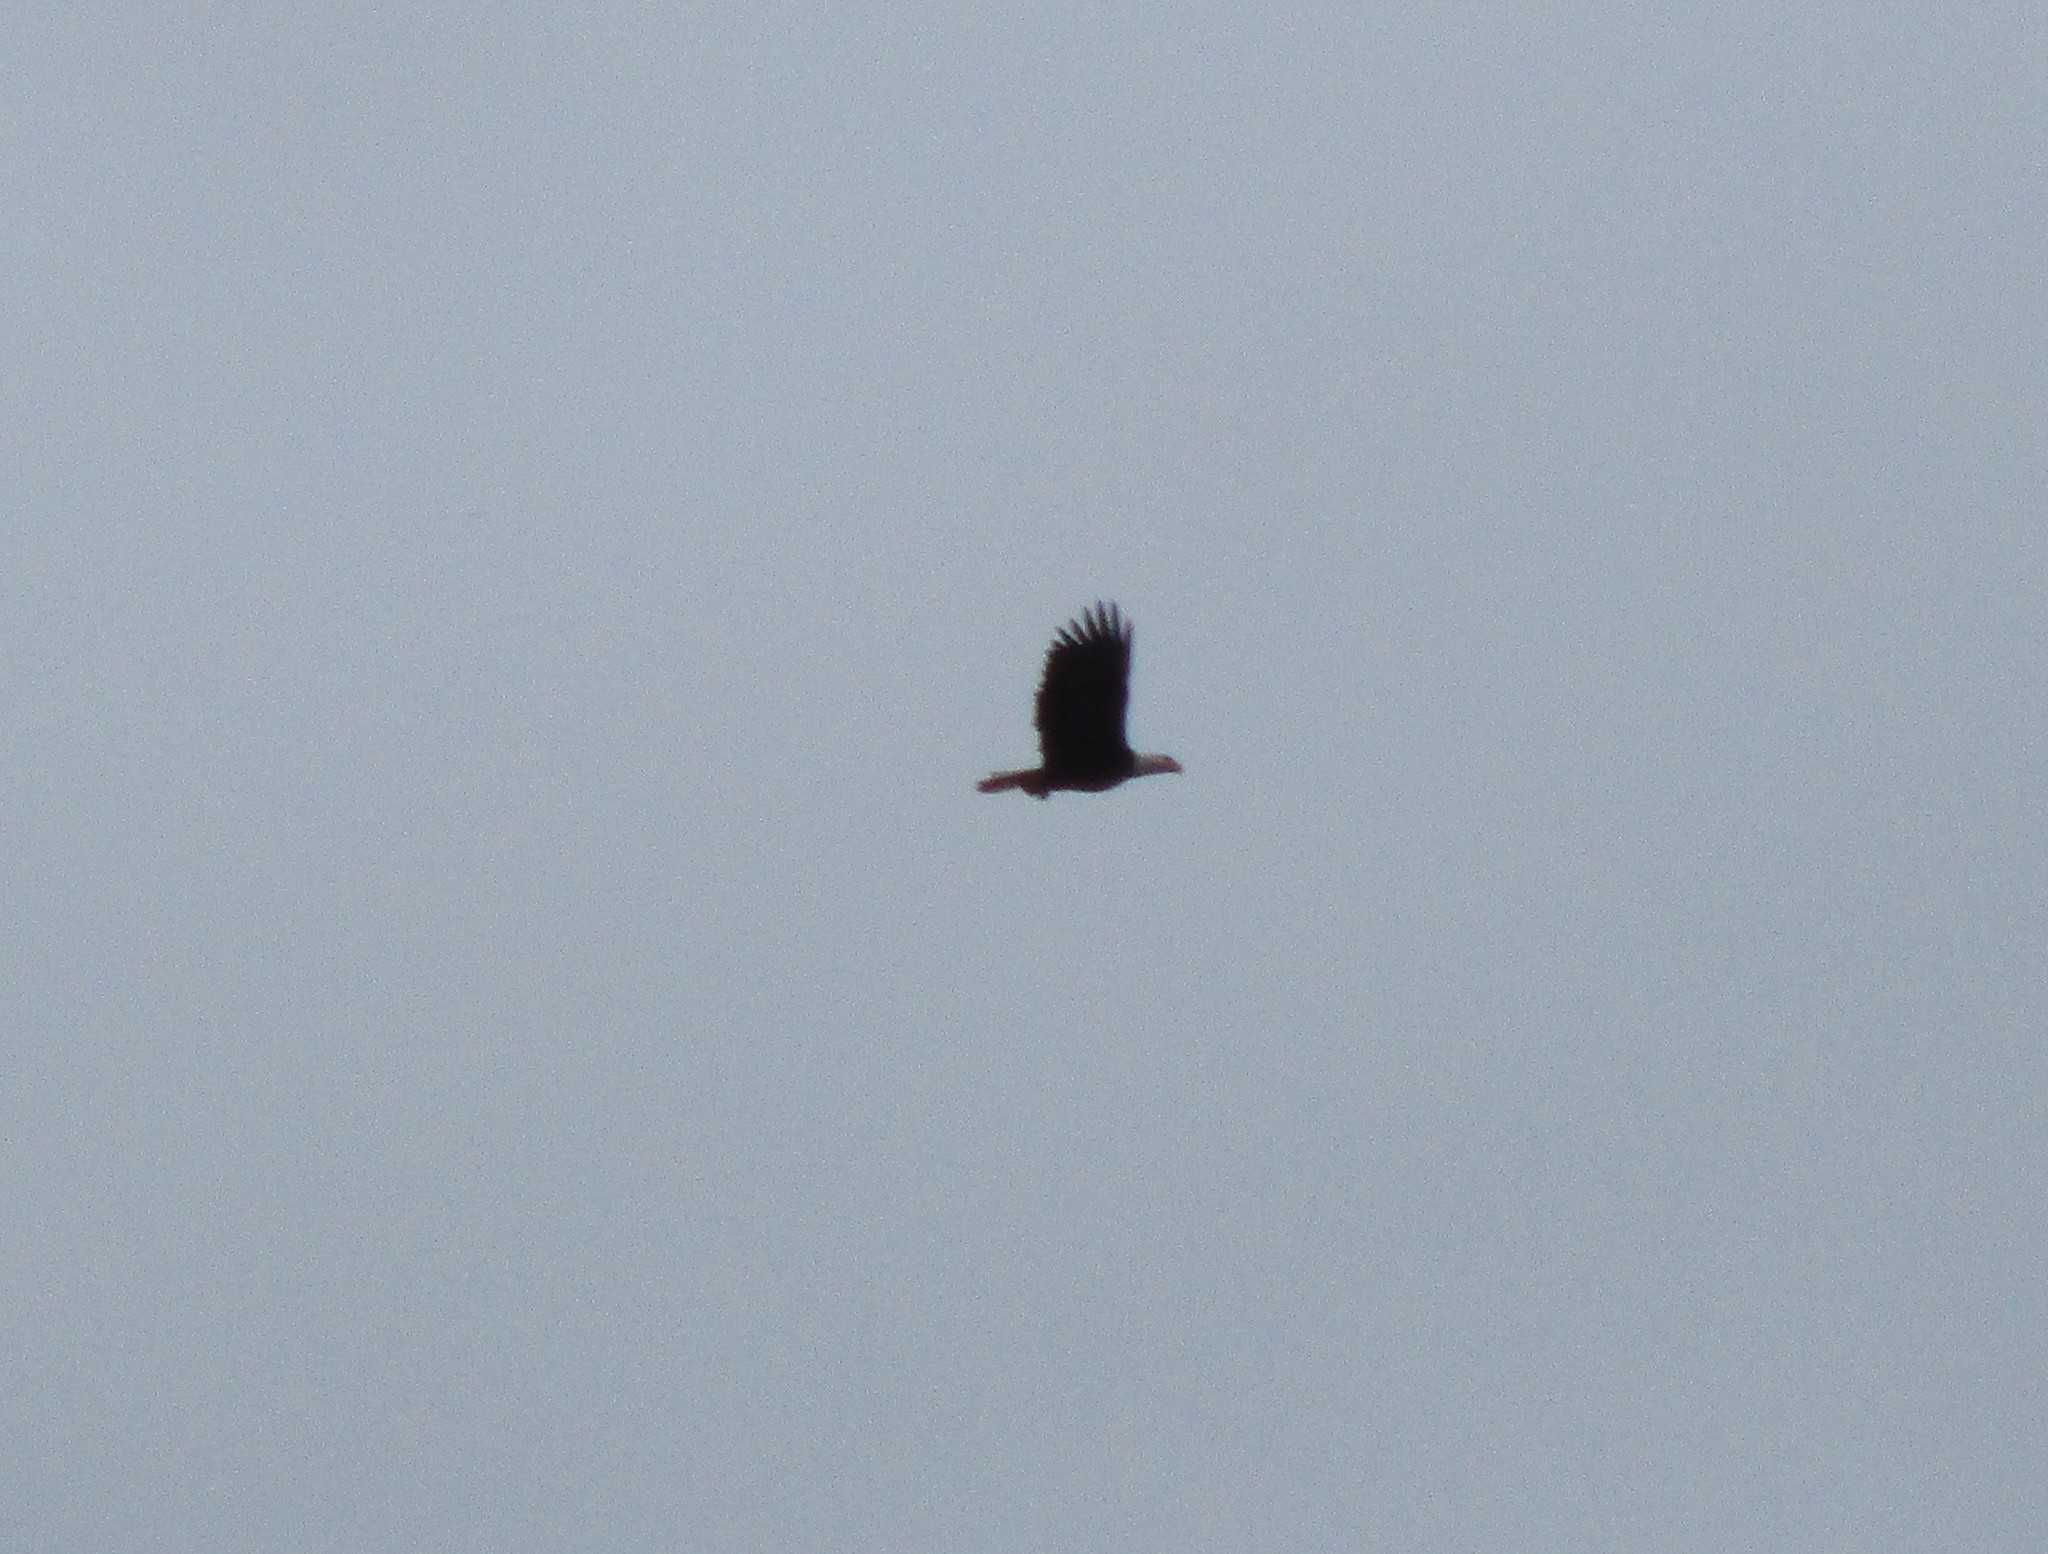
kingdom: Animalia
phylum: Chordata
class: Aves
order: Accipitriformes
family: Accipitridae
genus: Haliaeetus
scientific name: Haliaeetus leucocephalus
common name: Bald eagle
